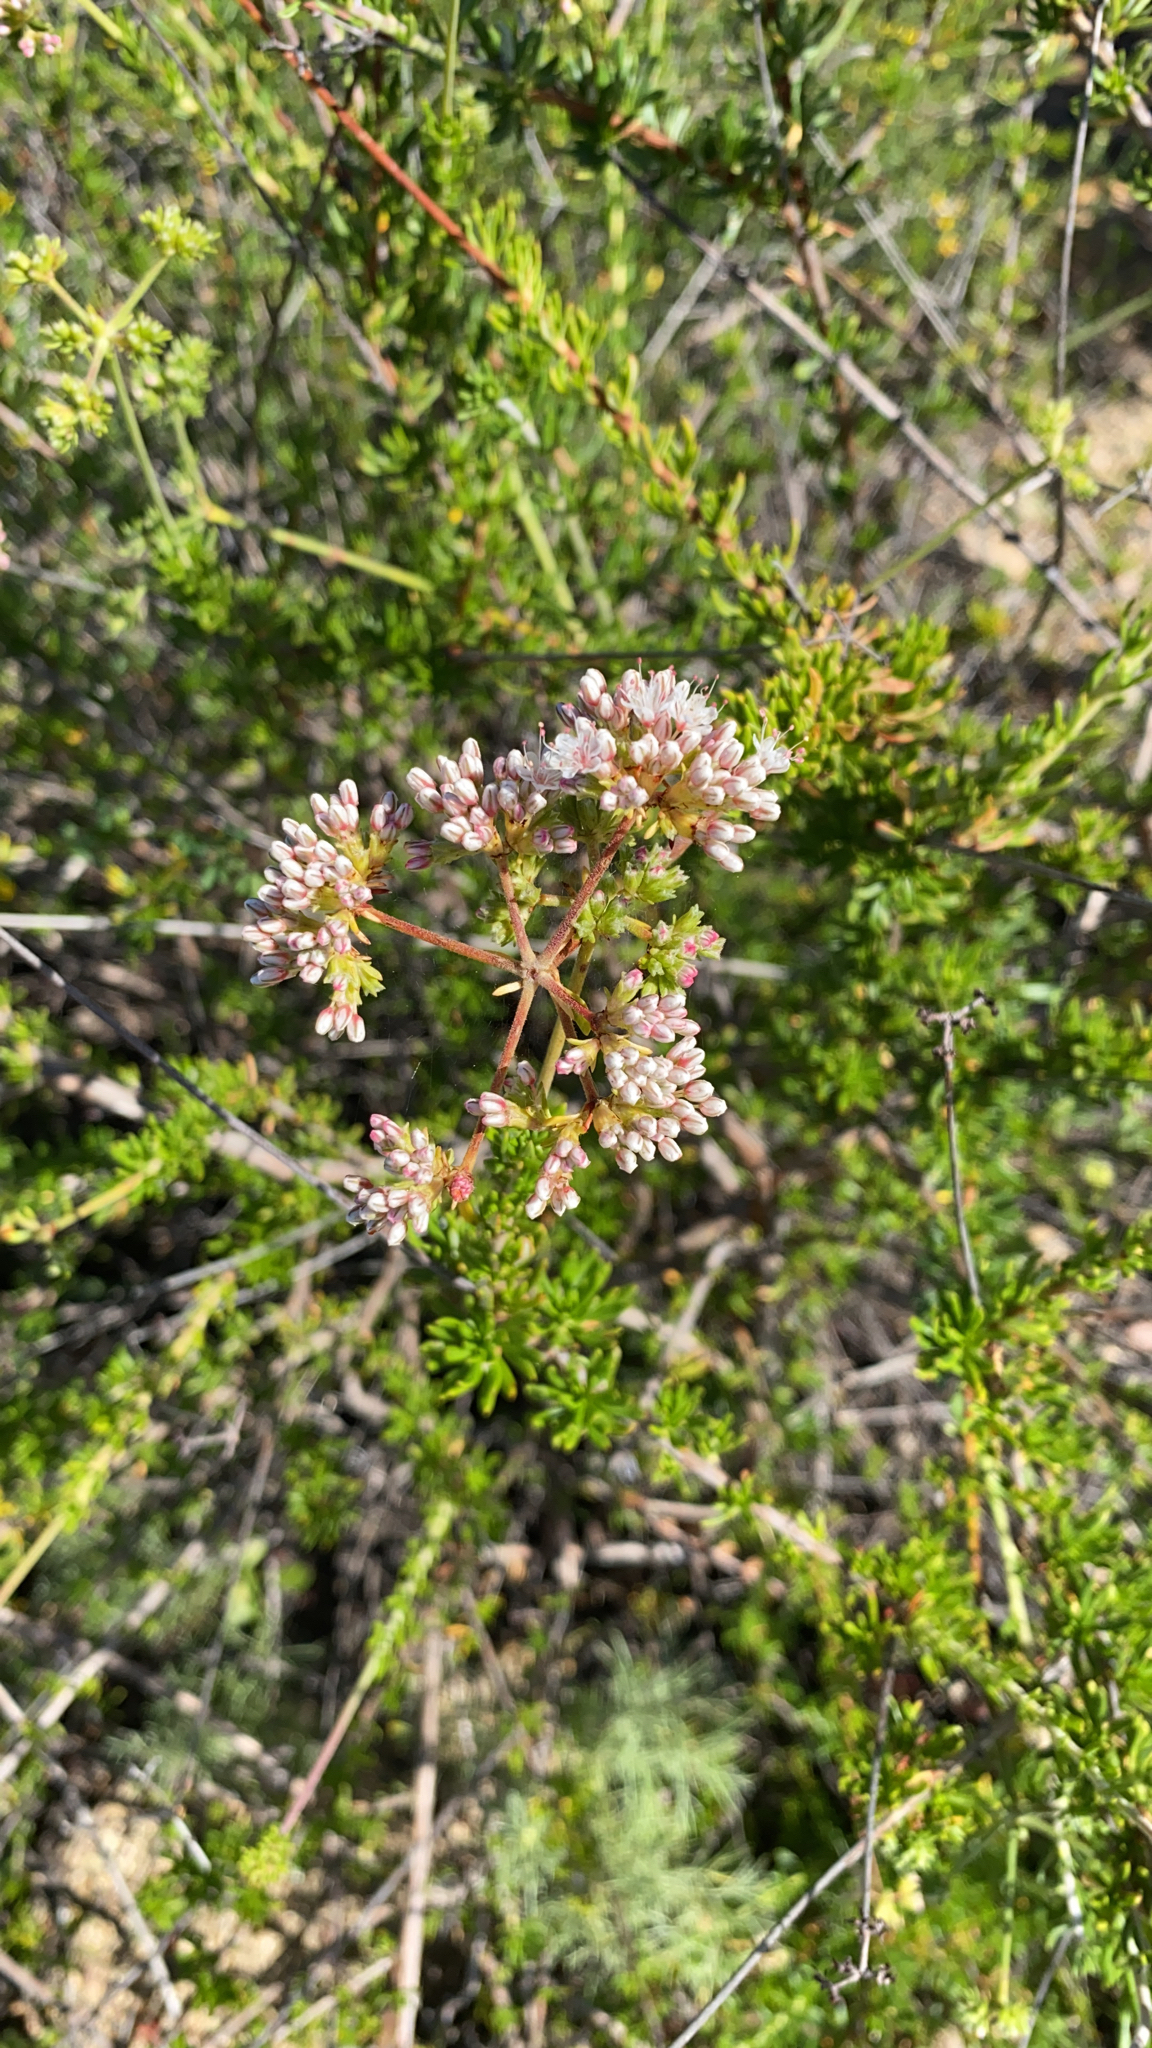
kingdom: Plantae
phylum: Tracheophyta
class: Magnoliopsida
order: Caryophyllales
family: Polygonaceae
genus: Eriogonum
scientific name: Eriogonum fasciculatum
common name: California wild buckwheat
